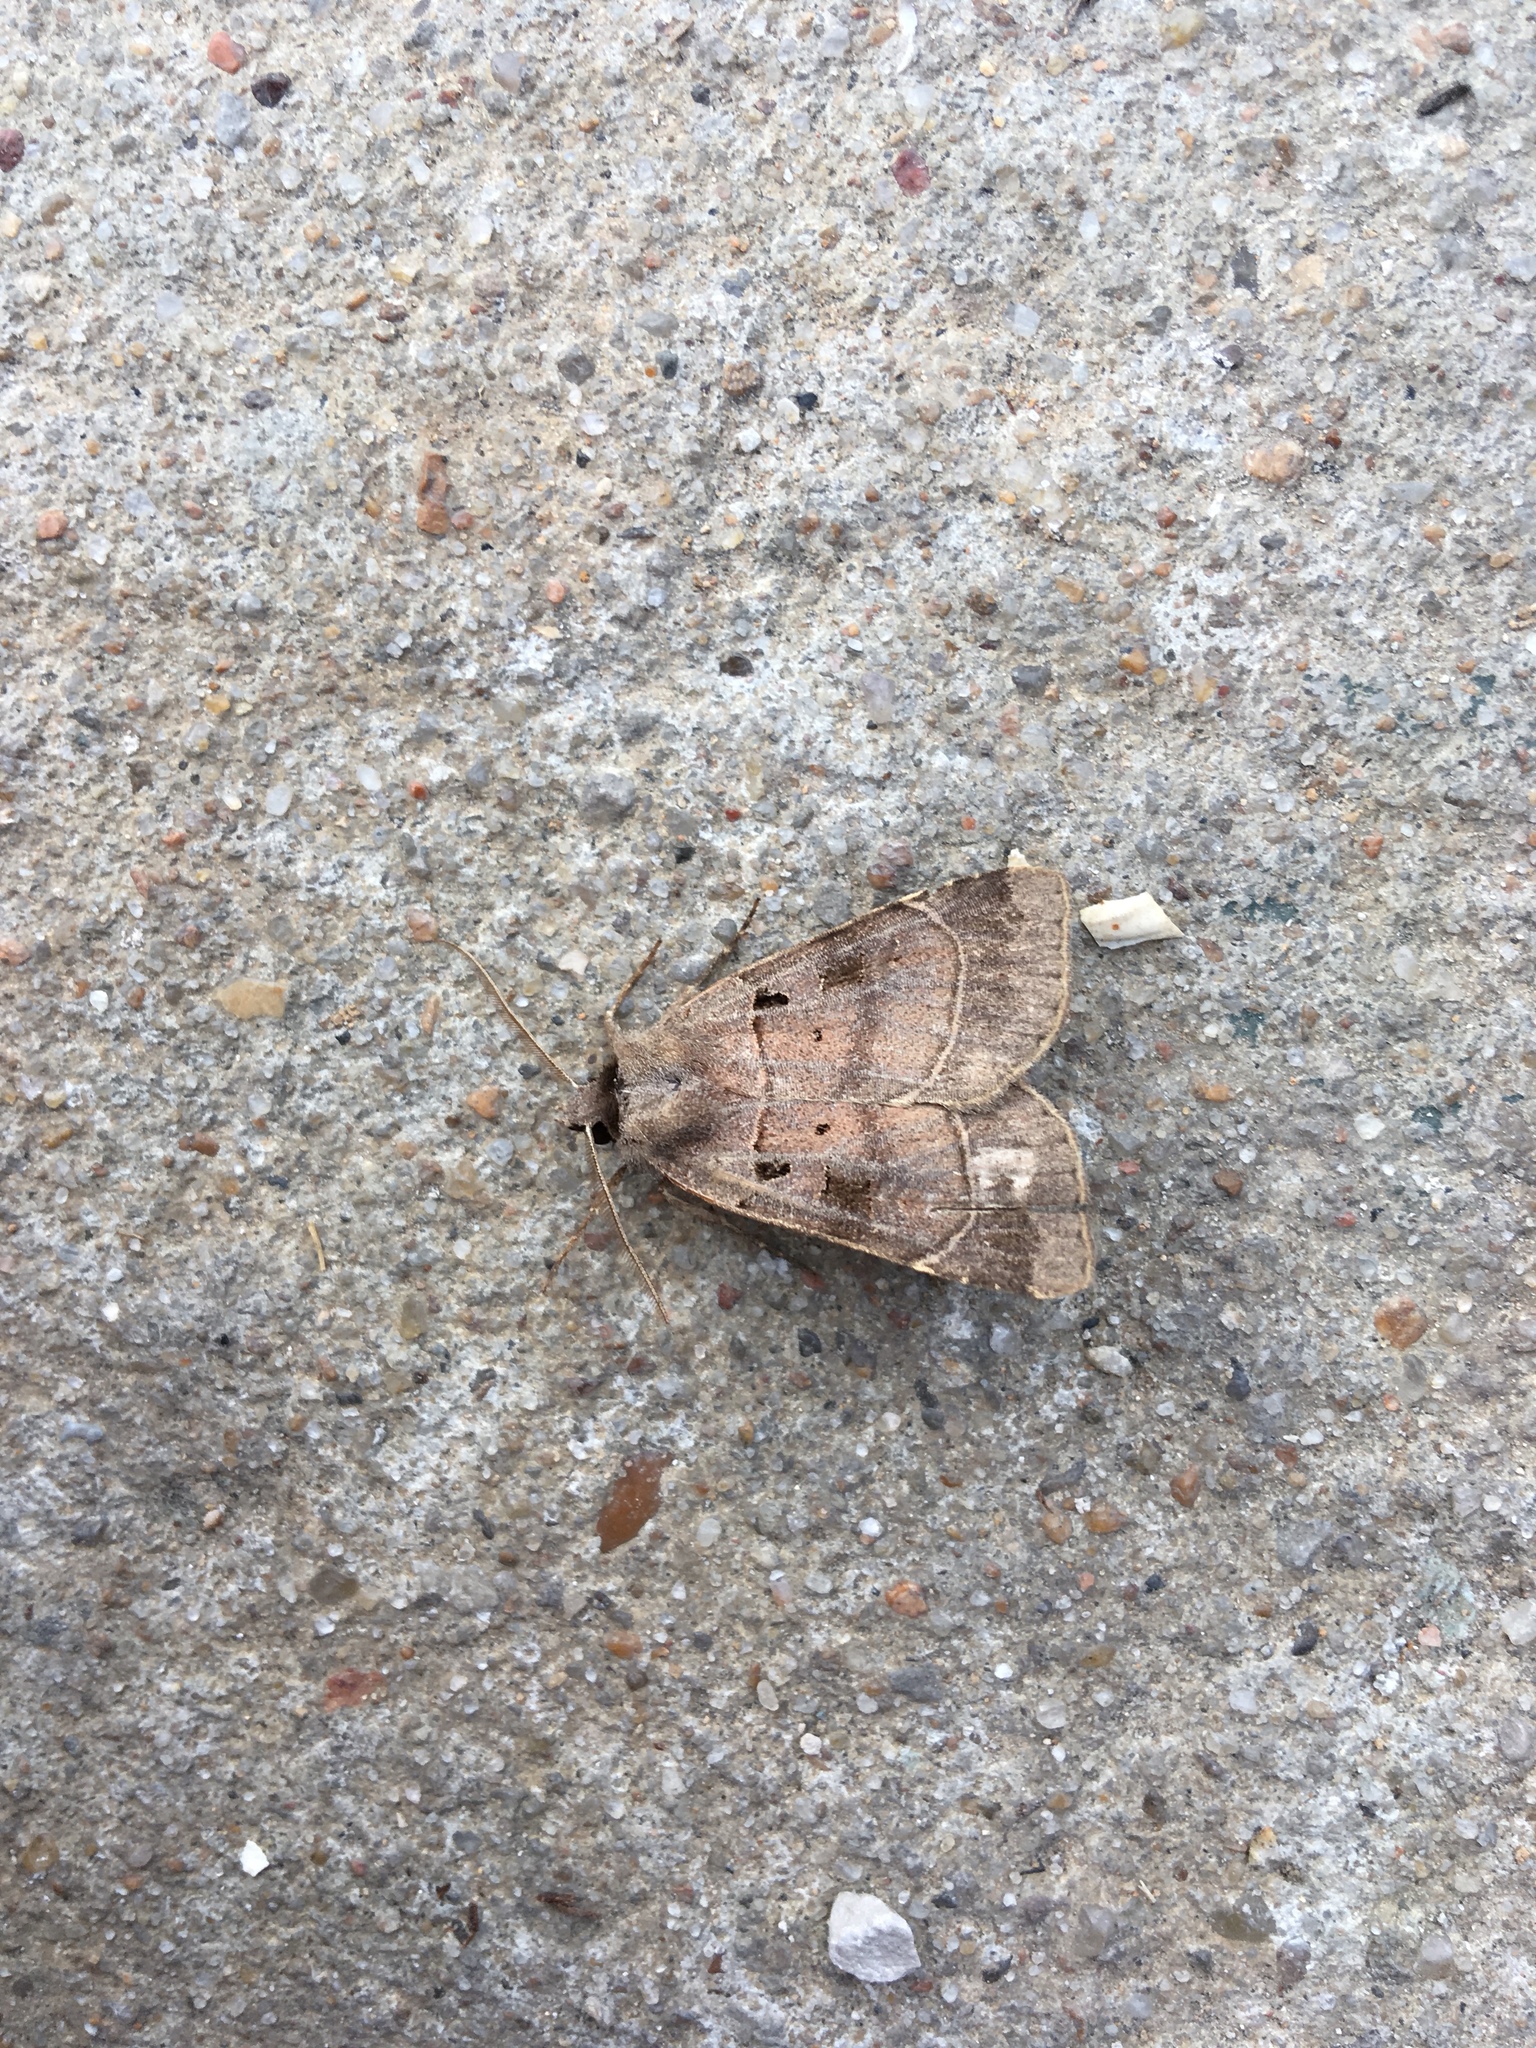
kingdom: Animalia
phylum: Arthropoda
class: Insecta
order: Lepidoptera
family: Noctuidae
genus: Agnorisma
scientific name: Agnorisma badinodis
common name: Pale-banded dart
